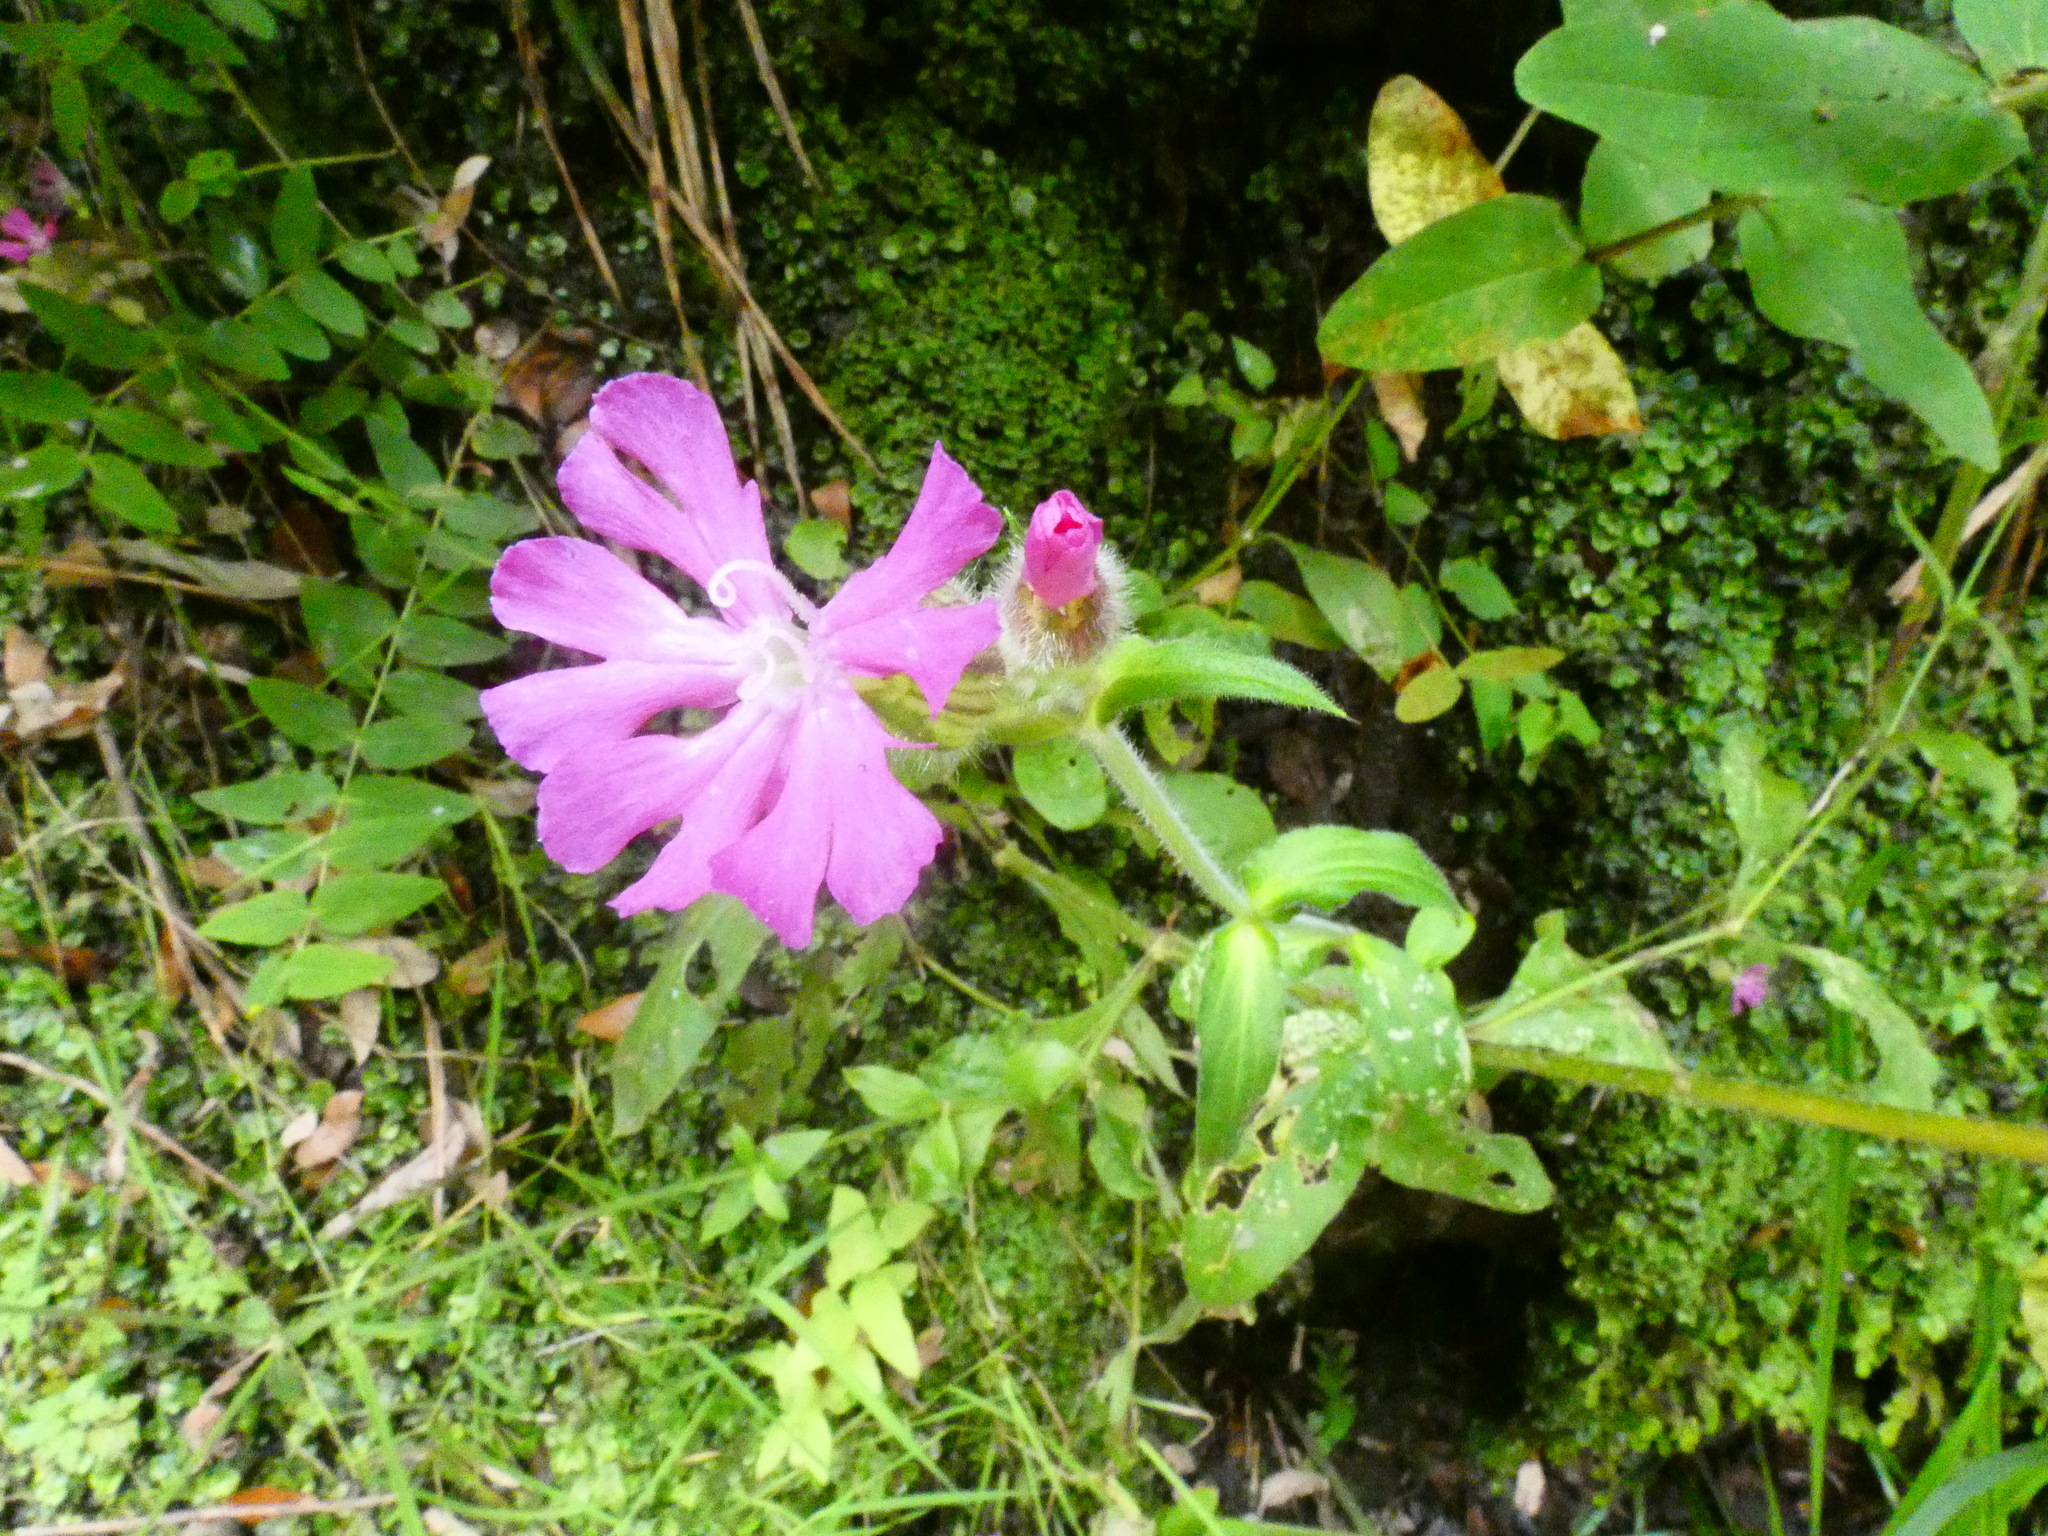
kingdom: Plantae
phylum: Tracheophyta
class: Magnoliopsida
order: Caryophyllales
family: Caryophyllaceae
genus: Silene
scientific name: Silene dioica
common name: Red campion
